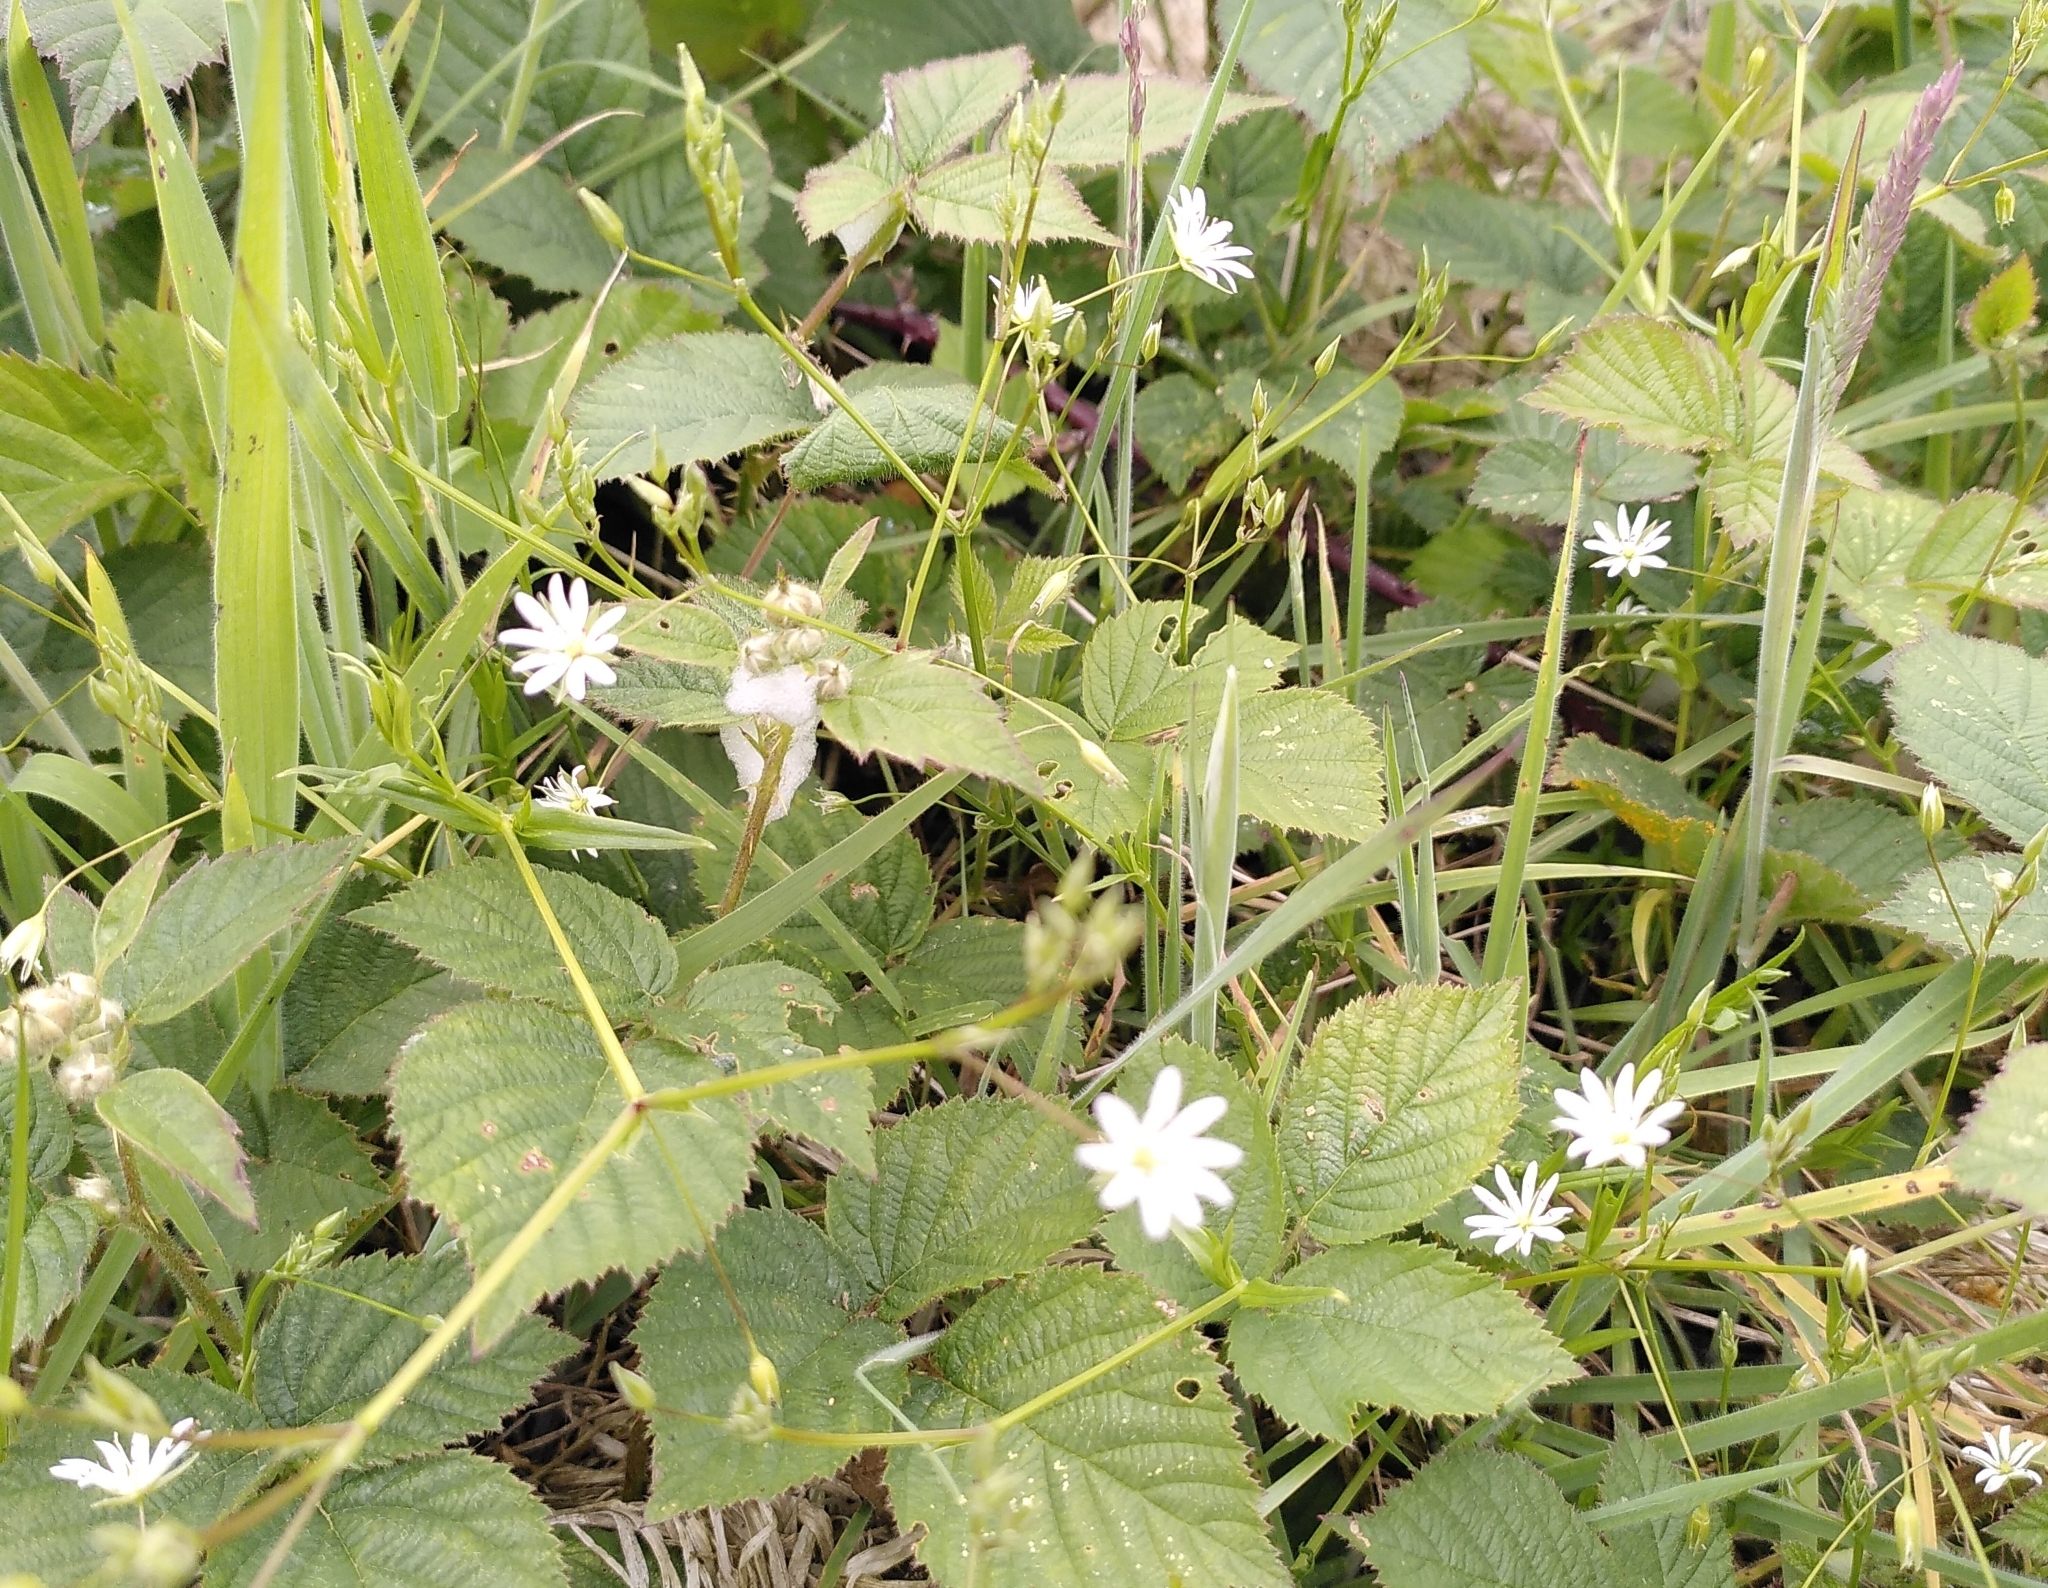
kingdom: Plantae
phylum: Tracheophyta
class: Magnoliopsida
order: Caryophyllales
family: Caryophyllaceae
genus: Stellaria
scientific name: Stellaria graminea
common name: Grass-like starwort
